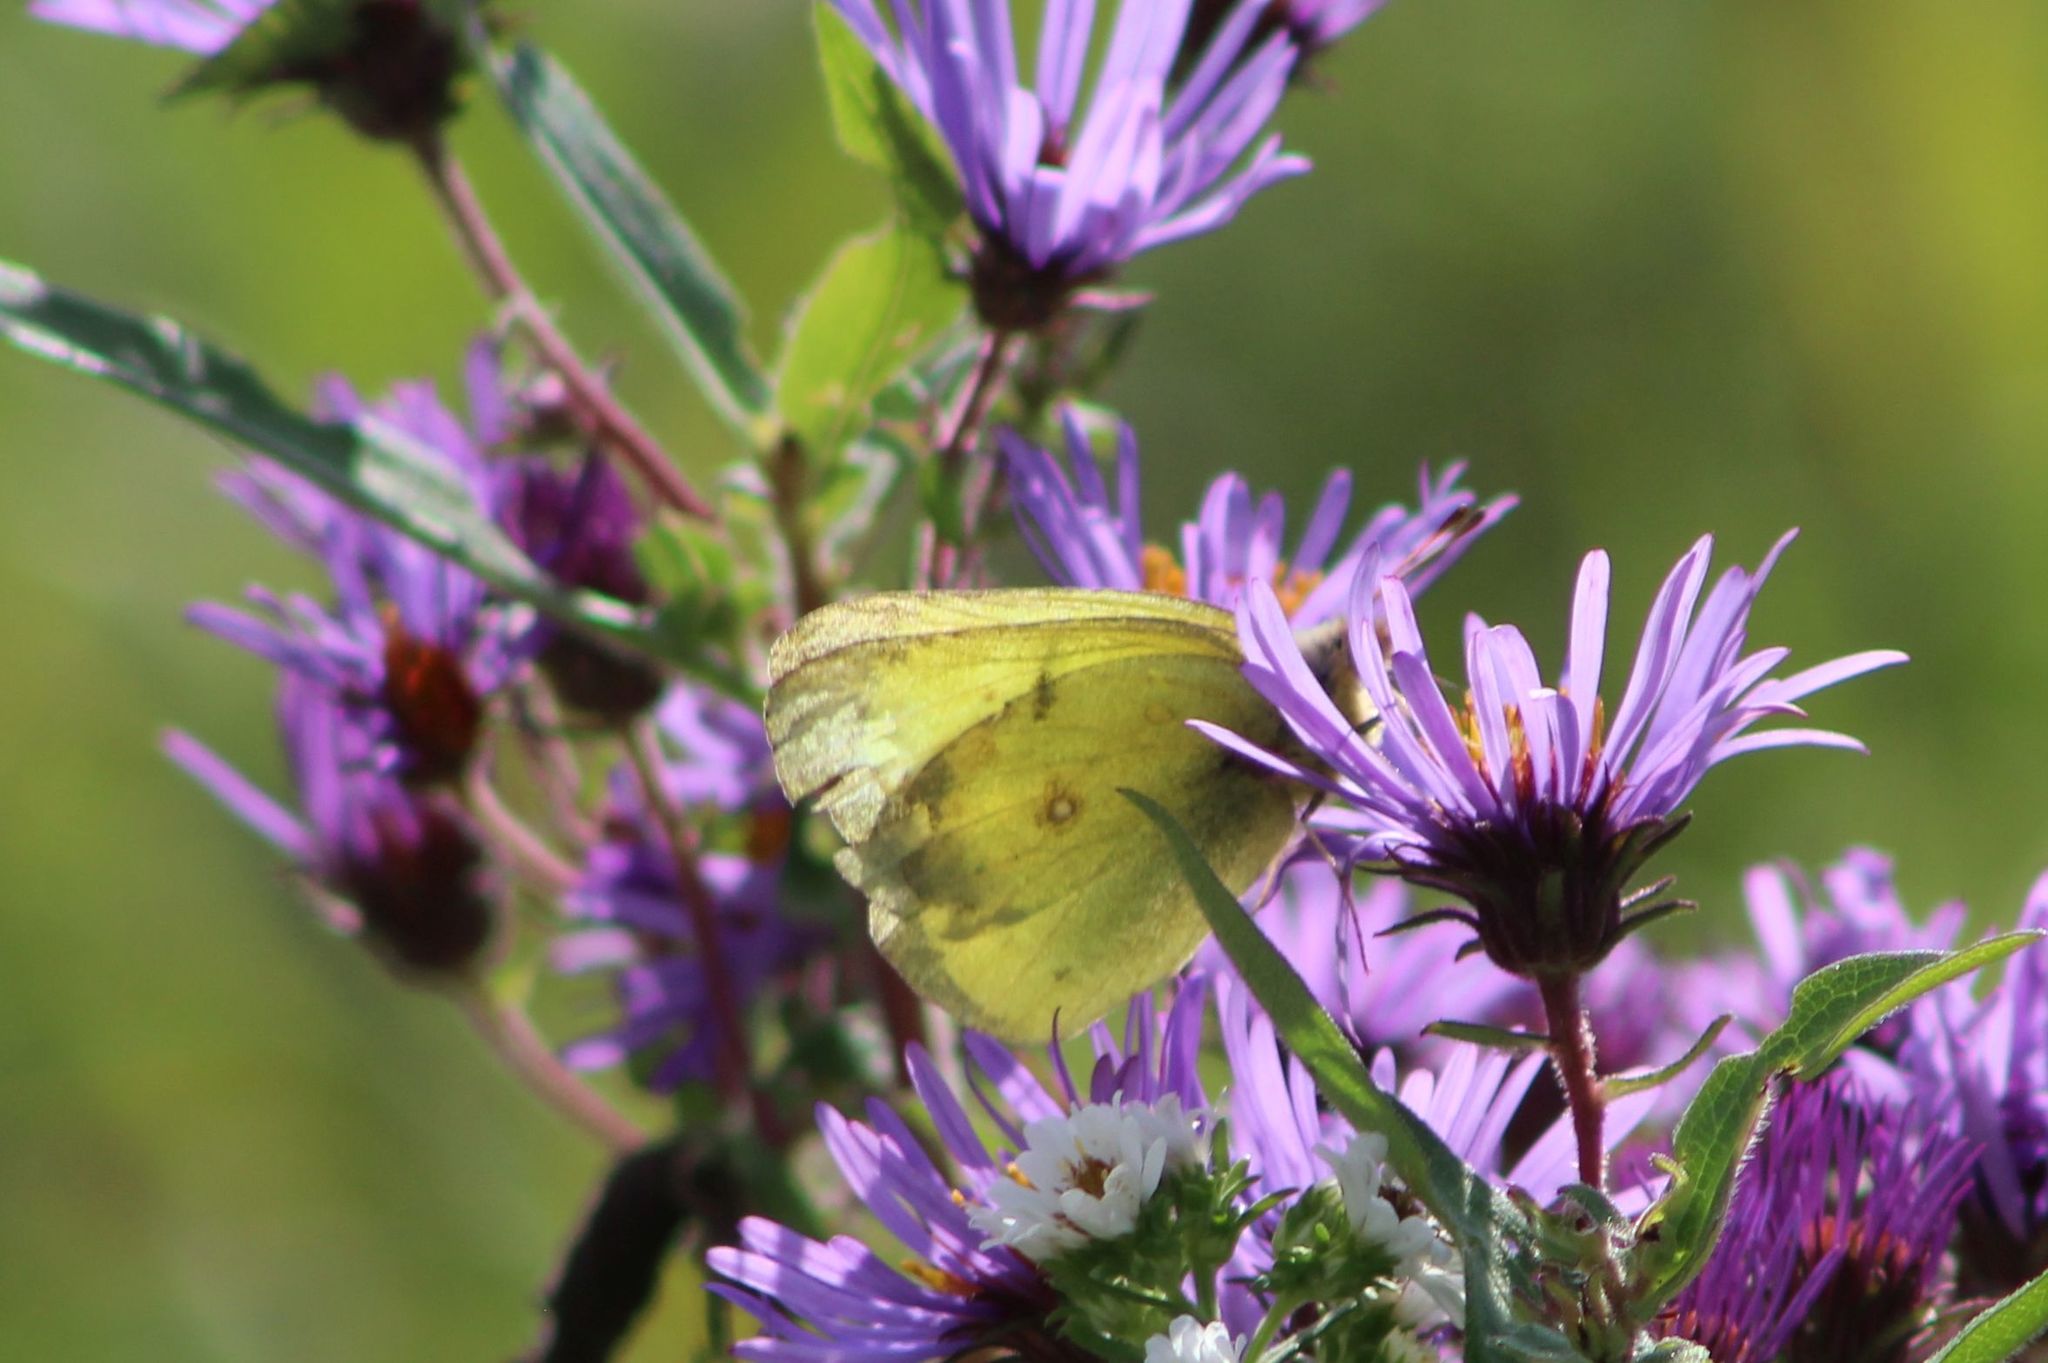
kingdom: Animalia
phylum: Arthropoda
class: Insecta
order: Lepidoptera
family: Pieridae
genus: Colias
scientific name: Colias philodice
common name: Clouded sulphur
